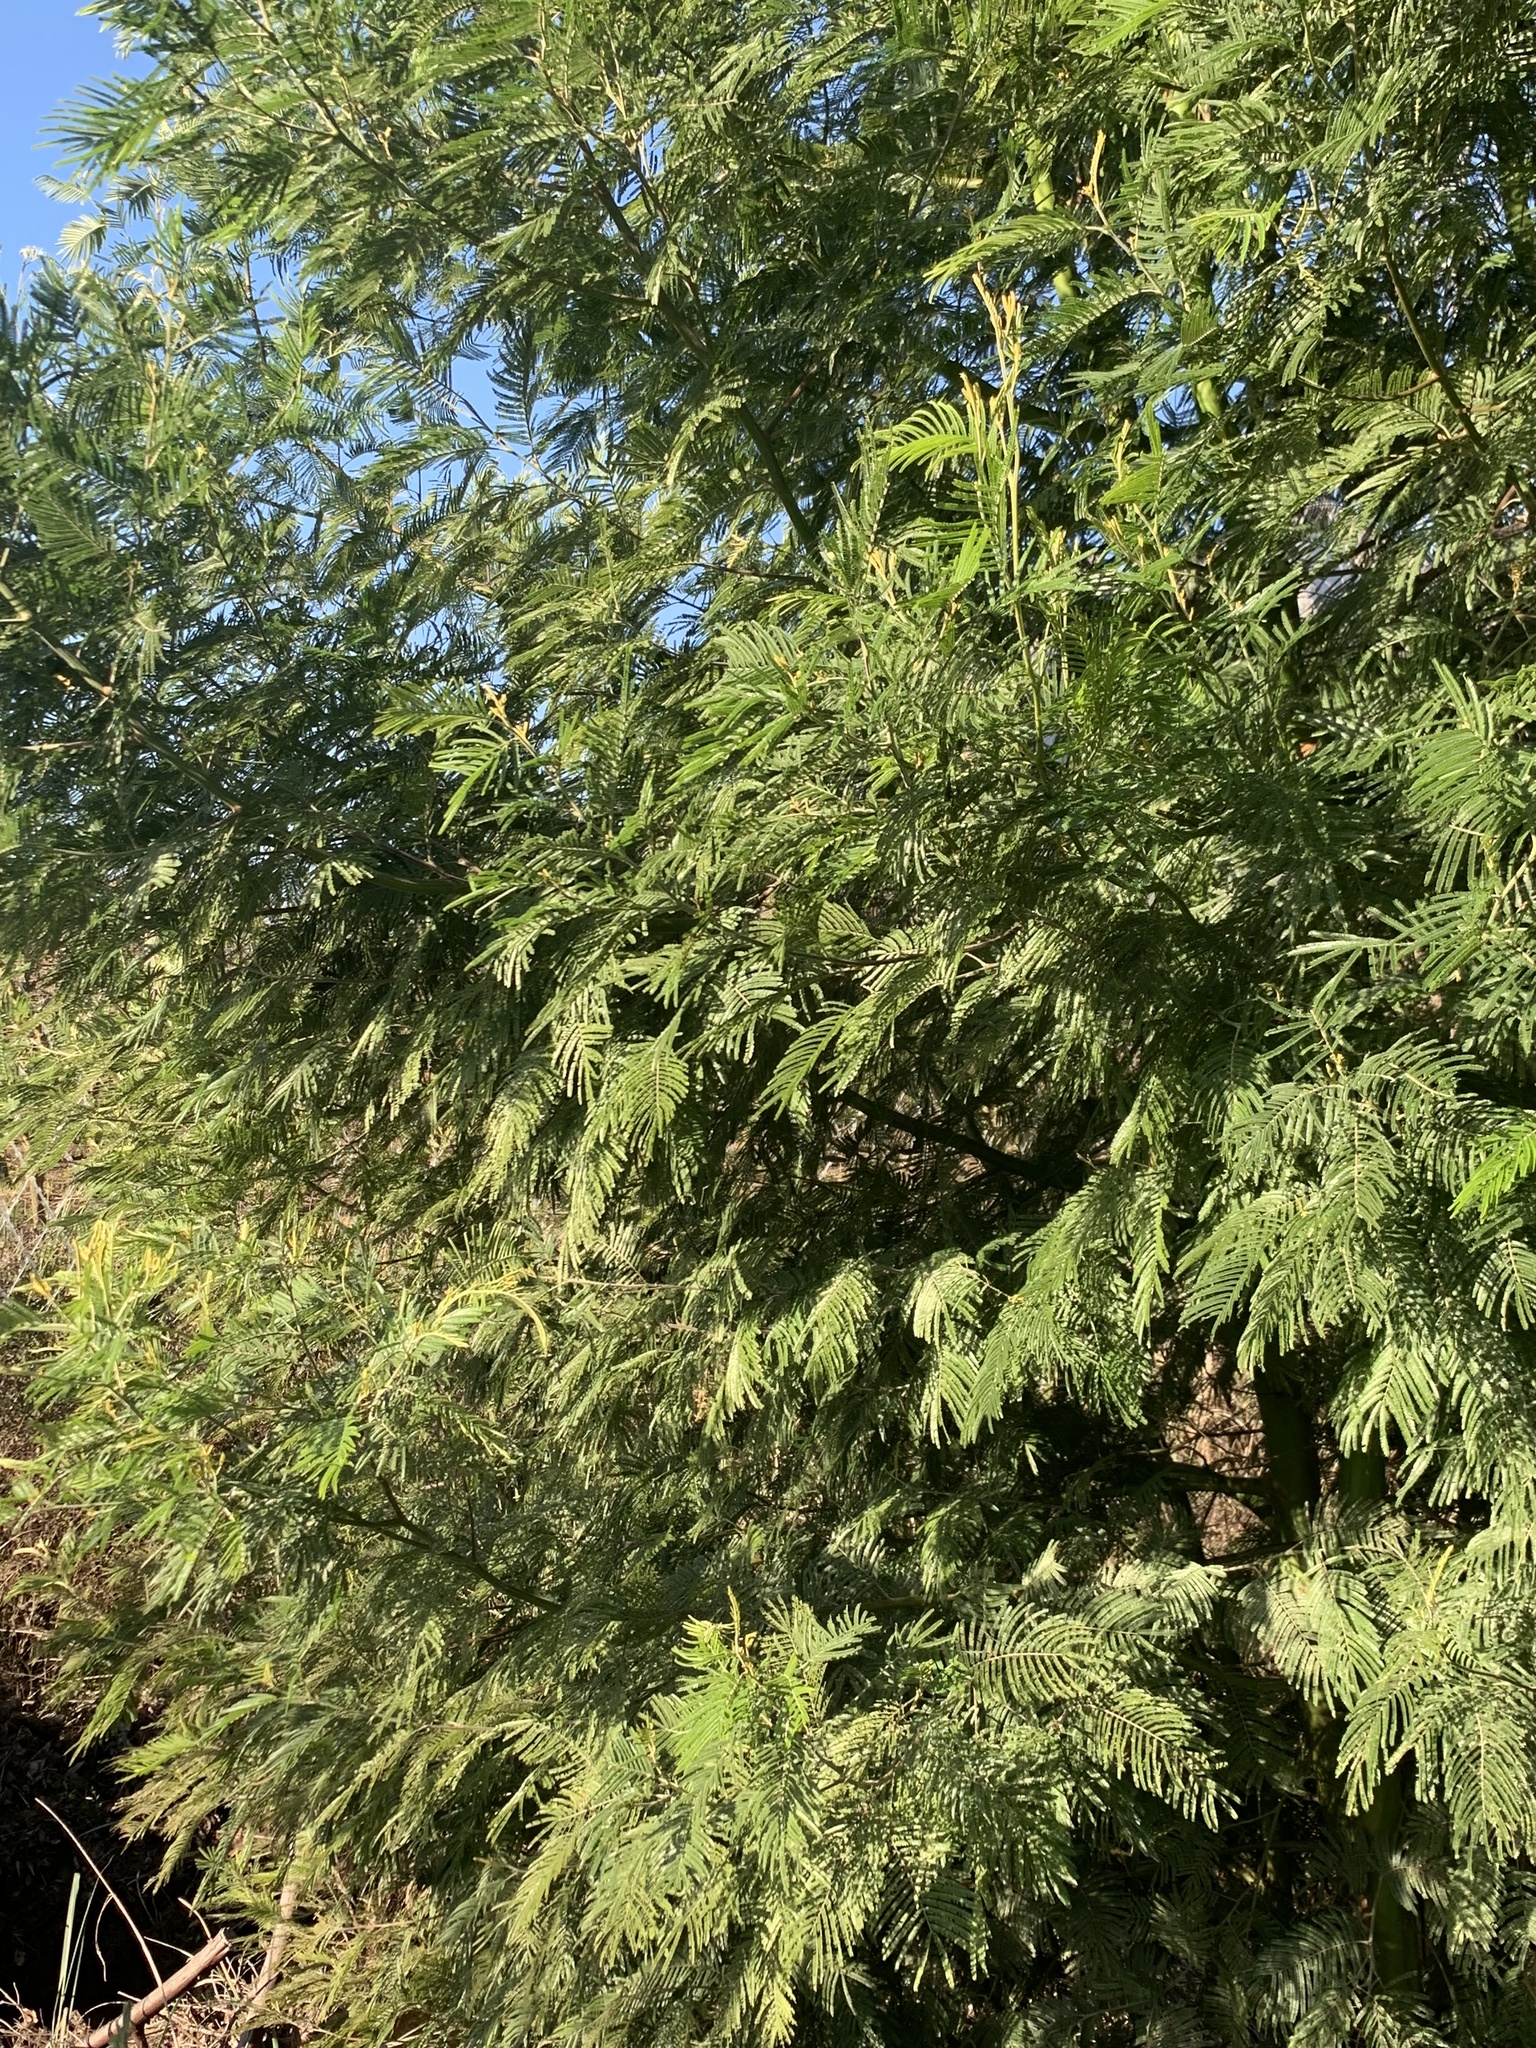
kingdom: Plantae
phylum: Tracheophyta
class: Magnoliopsida
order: Fabales
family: Fabaceae
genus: Acacia
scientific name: Acacia mearnsii
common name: Black wattle
